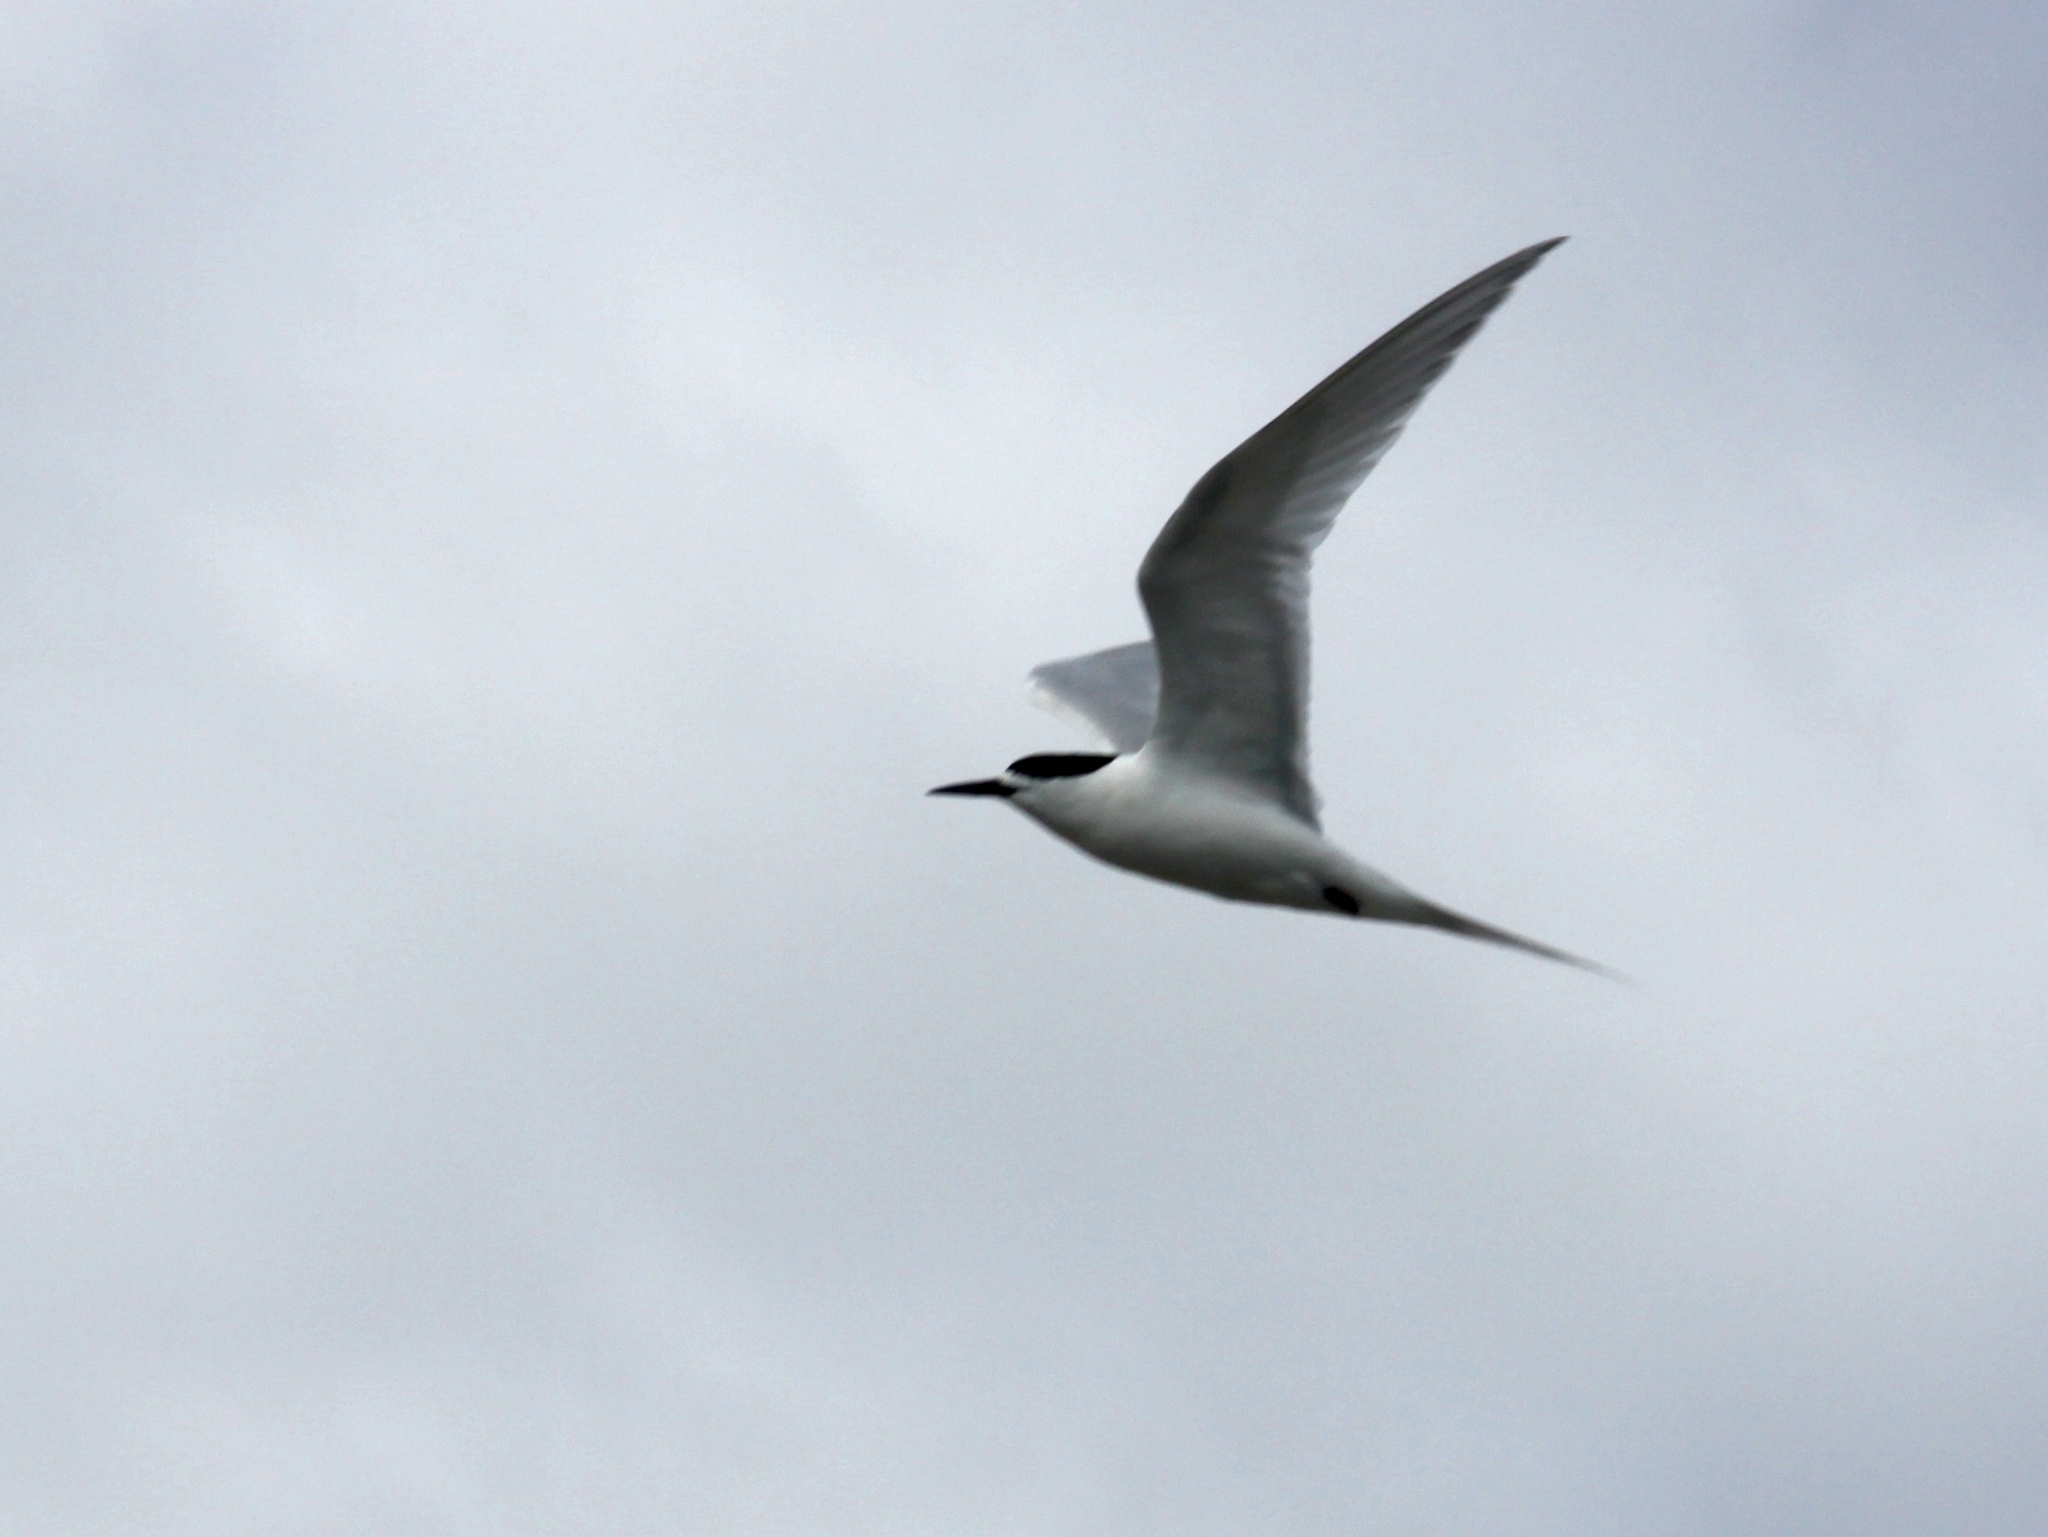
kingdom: Animalia
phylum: Chordata
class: Aves
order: Charadriiformes
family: Laridae
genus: Sterna
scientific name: Sterna striata
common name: White-fronted tern
